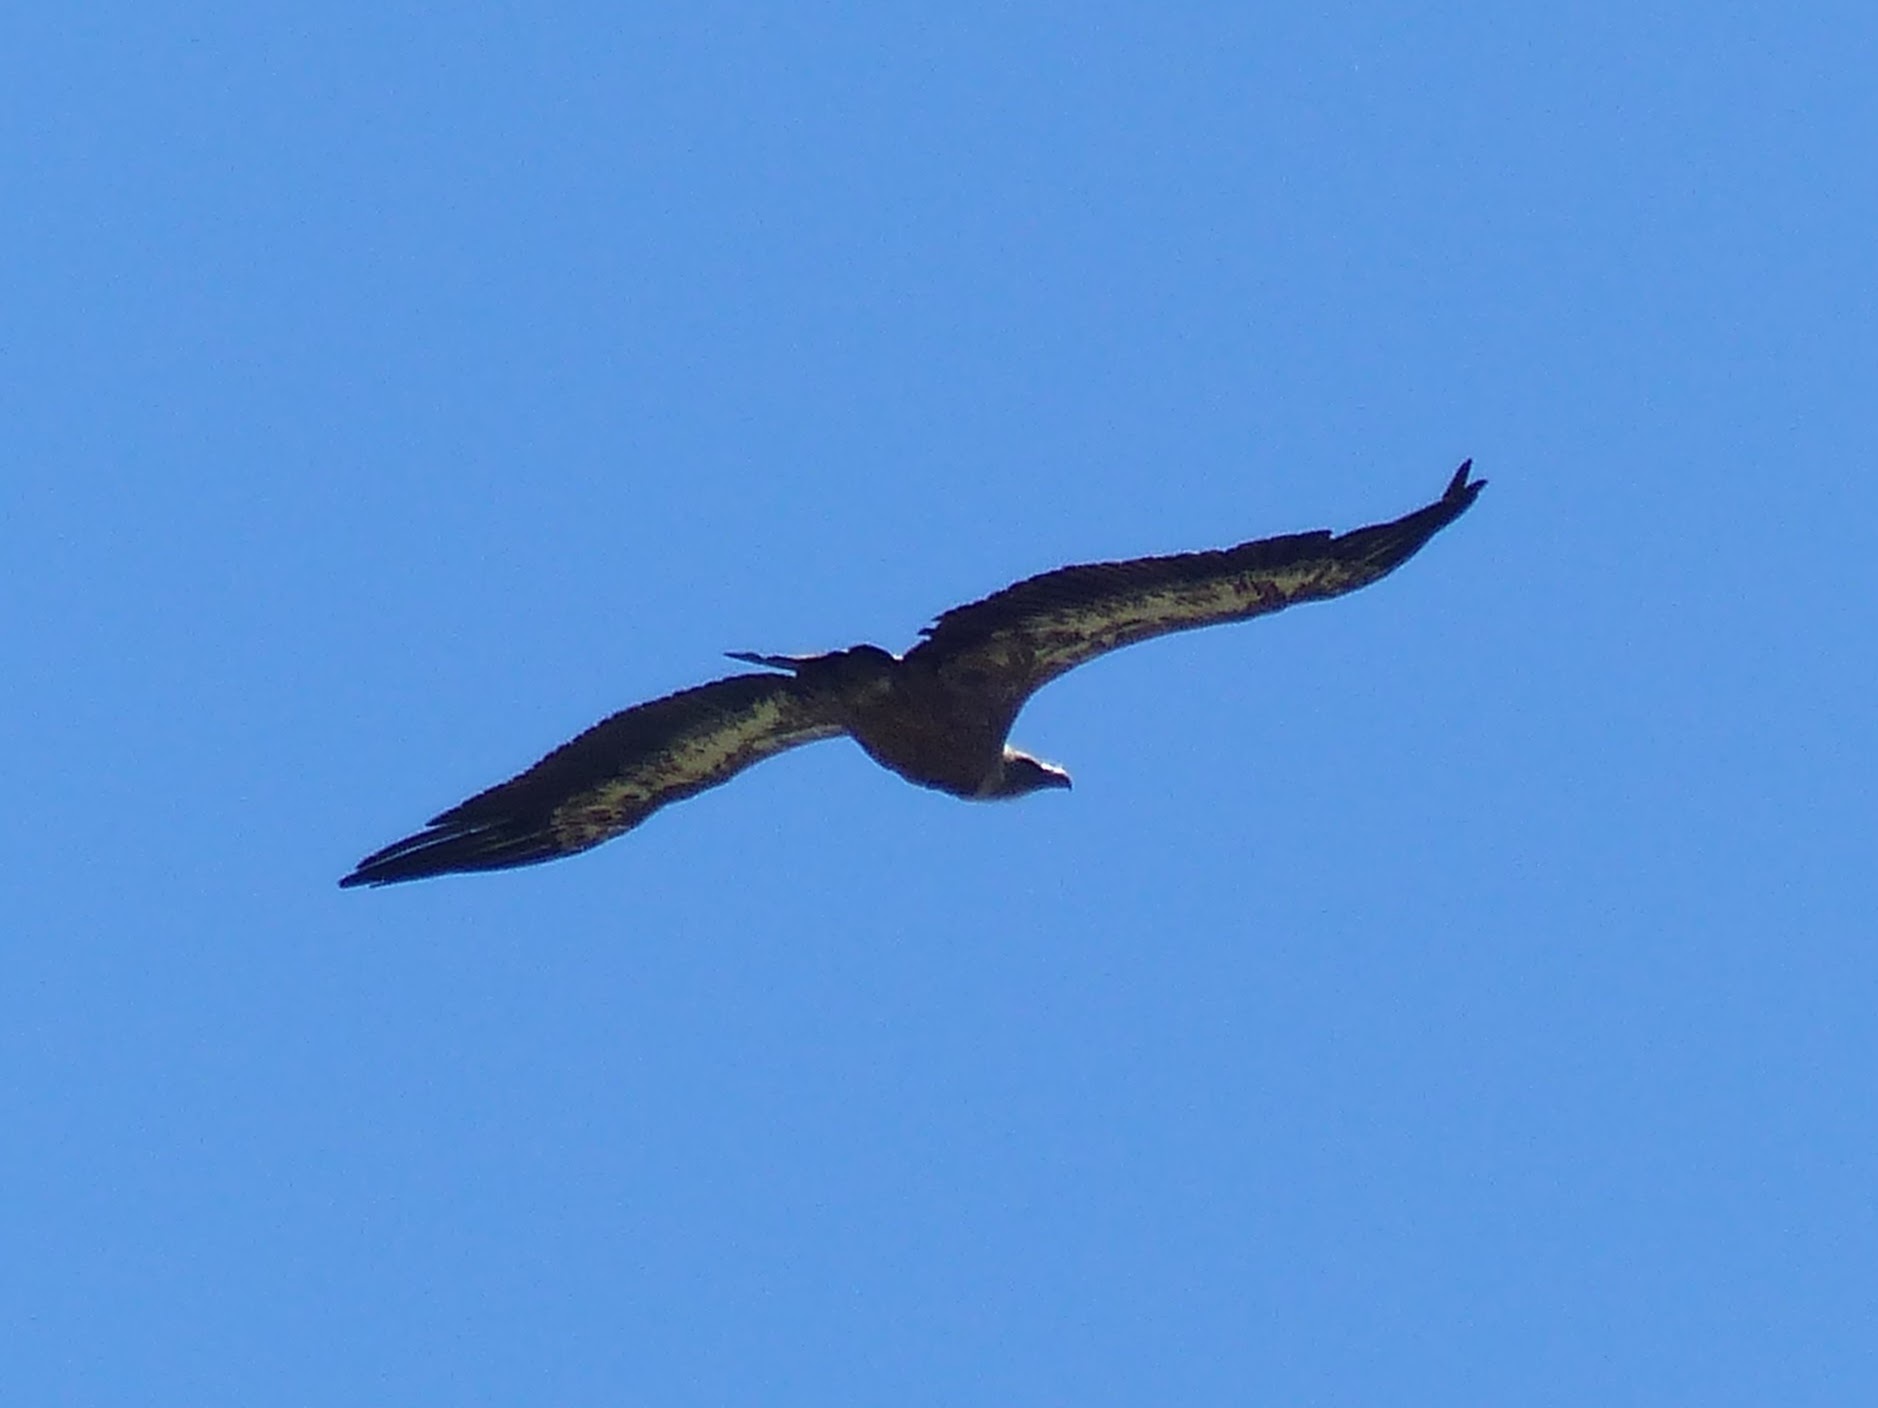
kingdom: Animalia
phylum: Chordata
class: Aves
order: Accipitriformes
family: Accipitridae
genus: Gyps
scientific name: Gyps fulvus
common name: Griffon vulture
